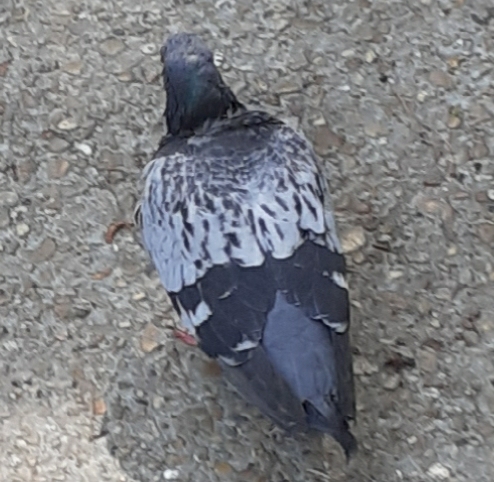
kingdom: Animalia
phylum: Chordata
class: Aves
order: Columbiformes
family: Columbidae
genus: Columba
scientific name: Columba livia
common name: Rock pigeon
